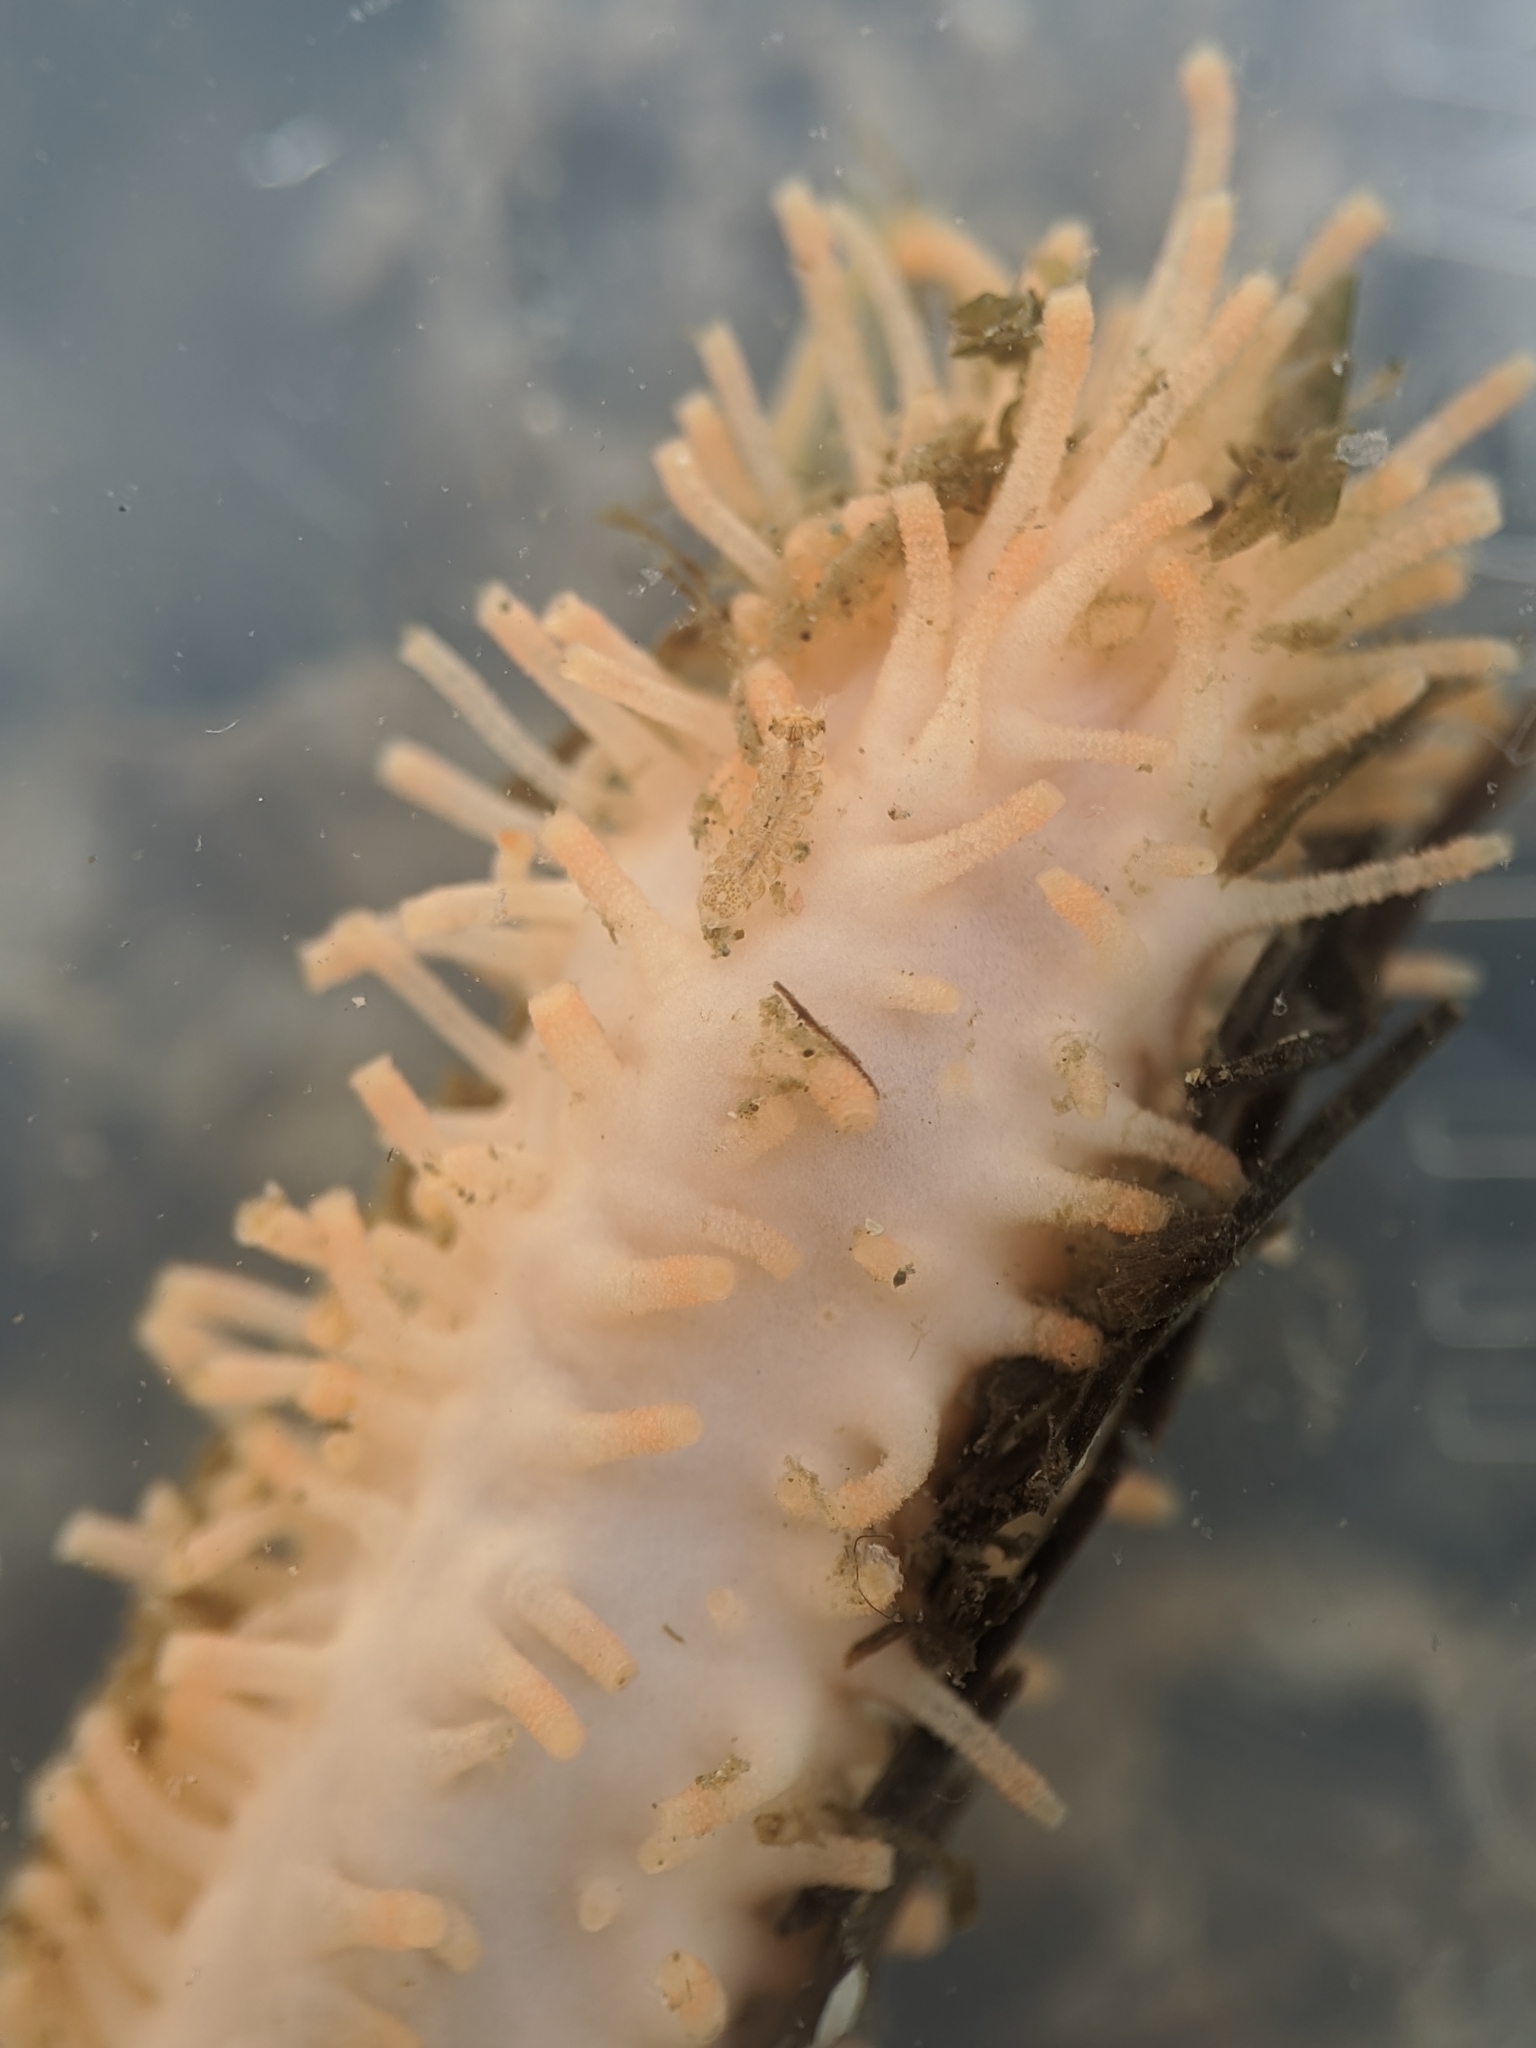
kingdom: Animalia
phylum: Echinodermata
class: Holothuroidea
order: Dendrochirotida
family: Sclerodactylidae
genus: Eupentacta
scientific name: Eupentacta quinquesemita
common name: Pentamerous sea cucumber
